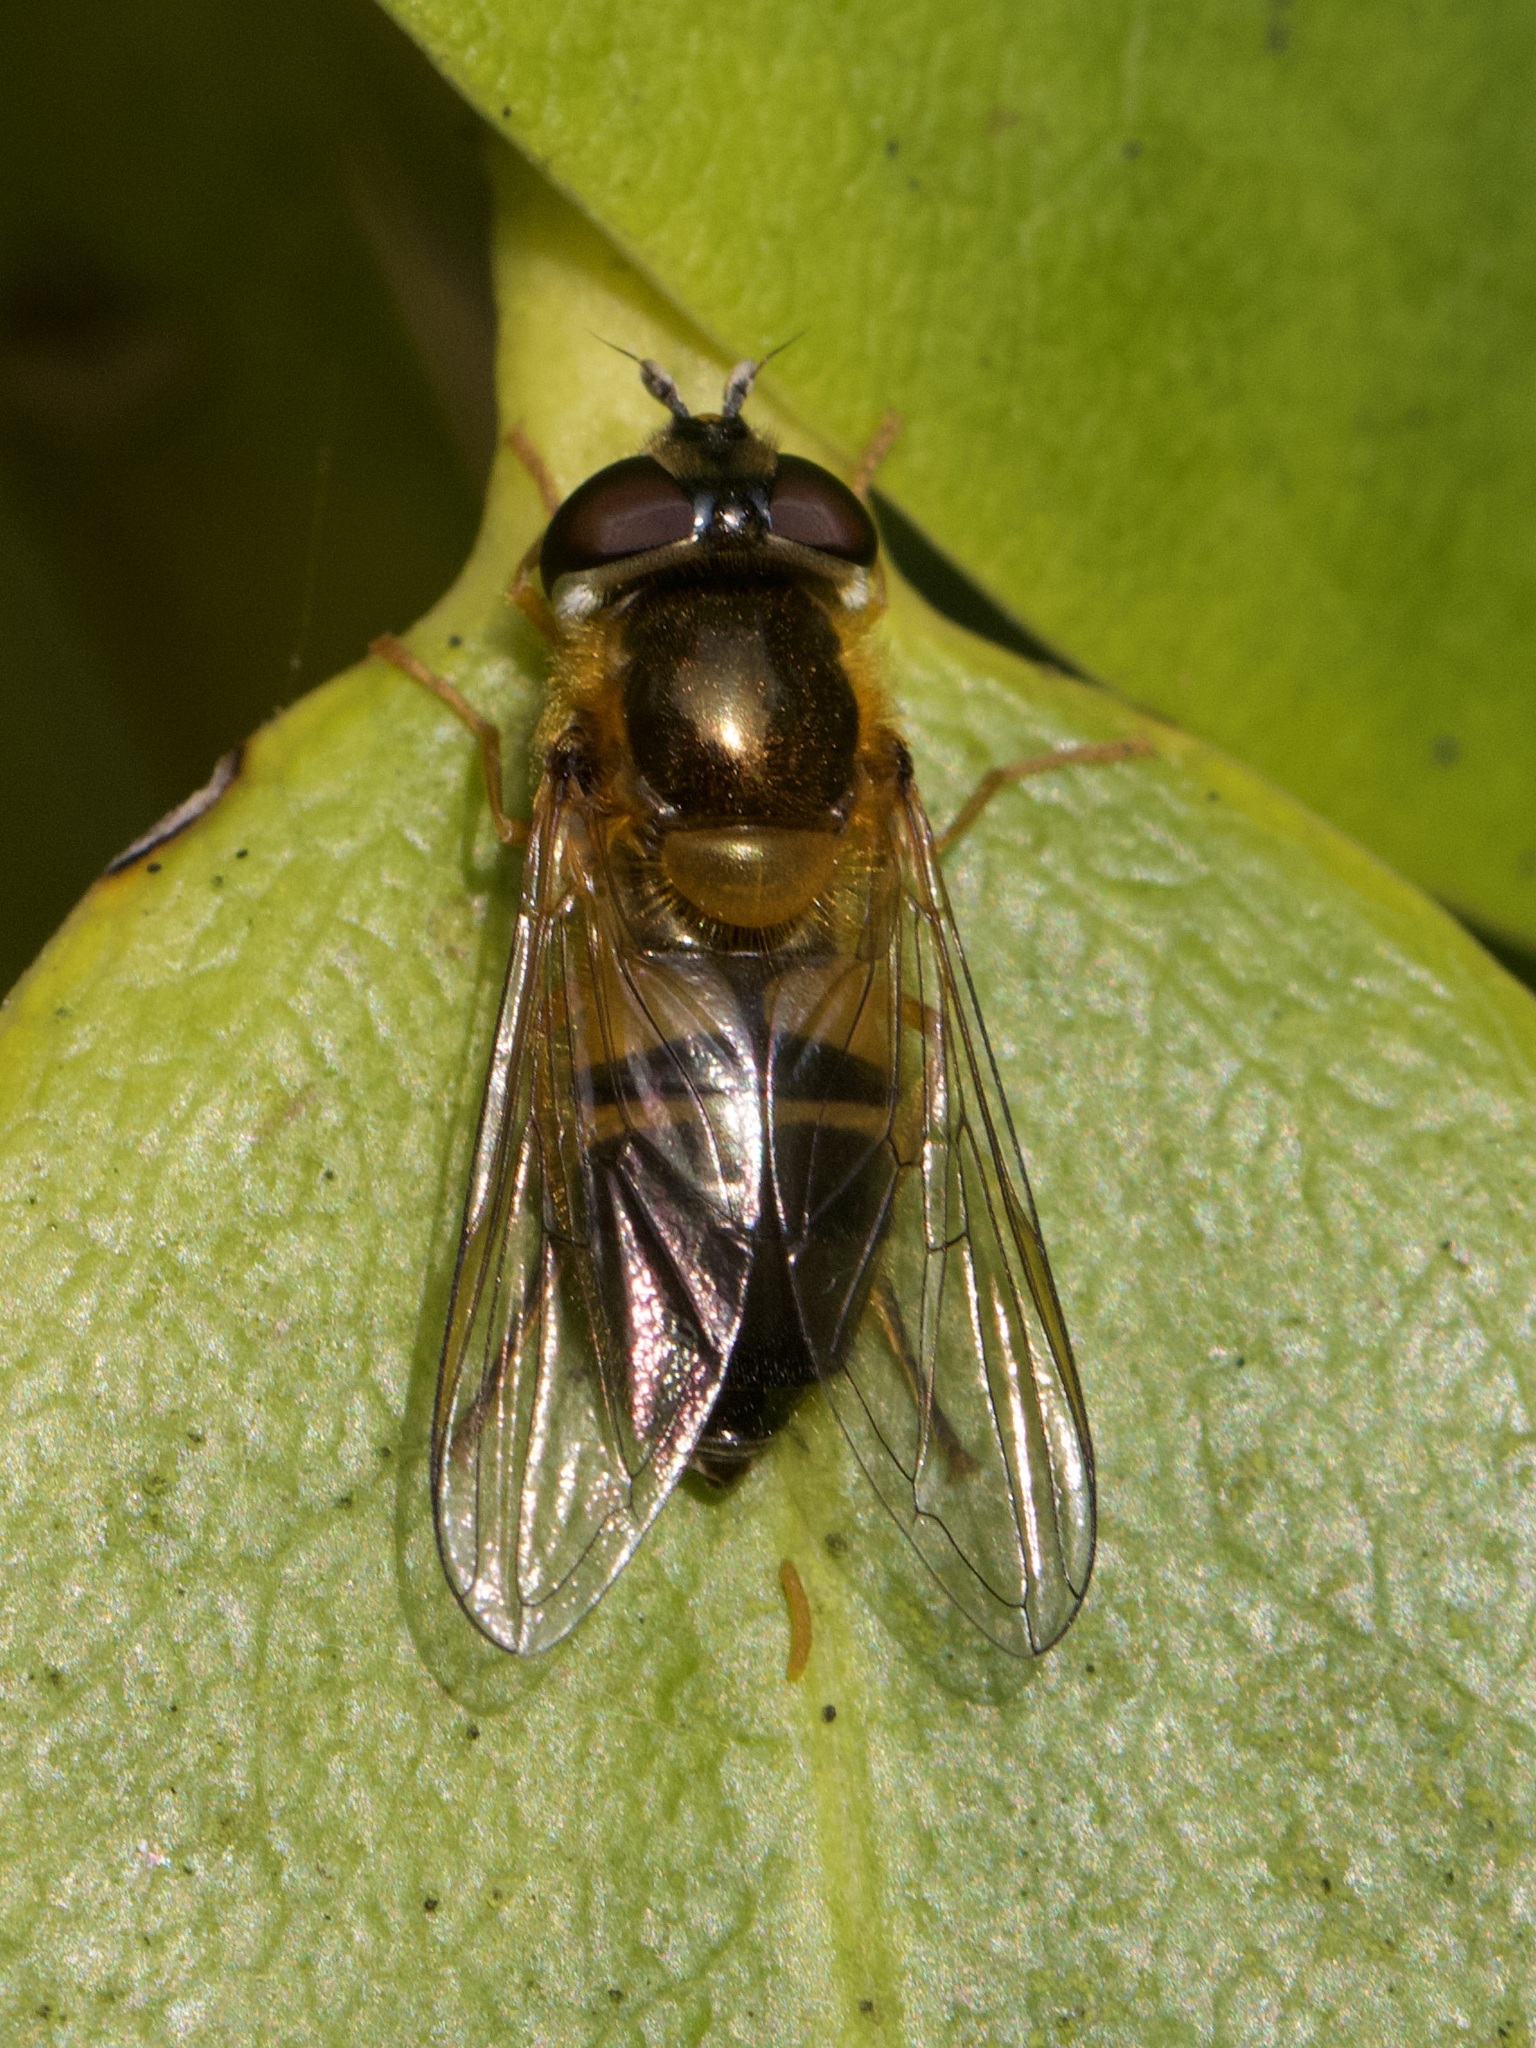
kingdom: Animalia
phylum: Arthropoda
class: Insecta
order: Diptera
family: Syrphidae
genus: Epistrophe
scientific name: Epistrophe eligans
